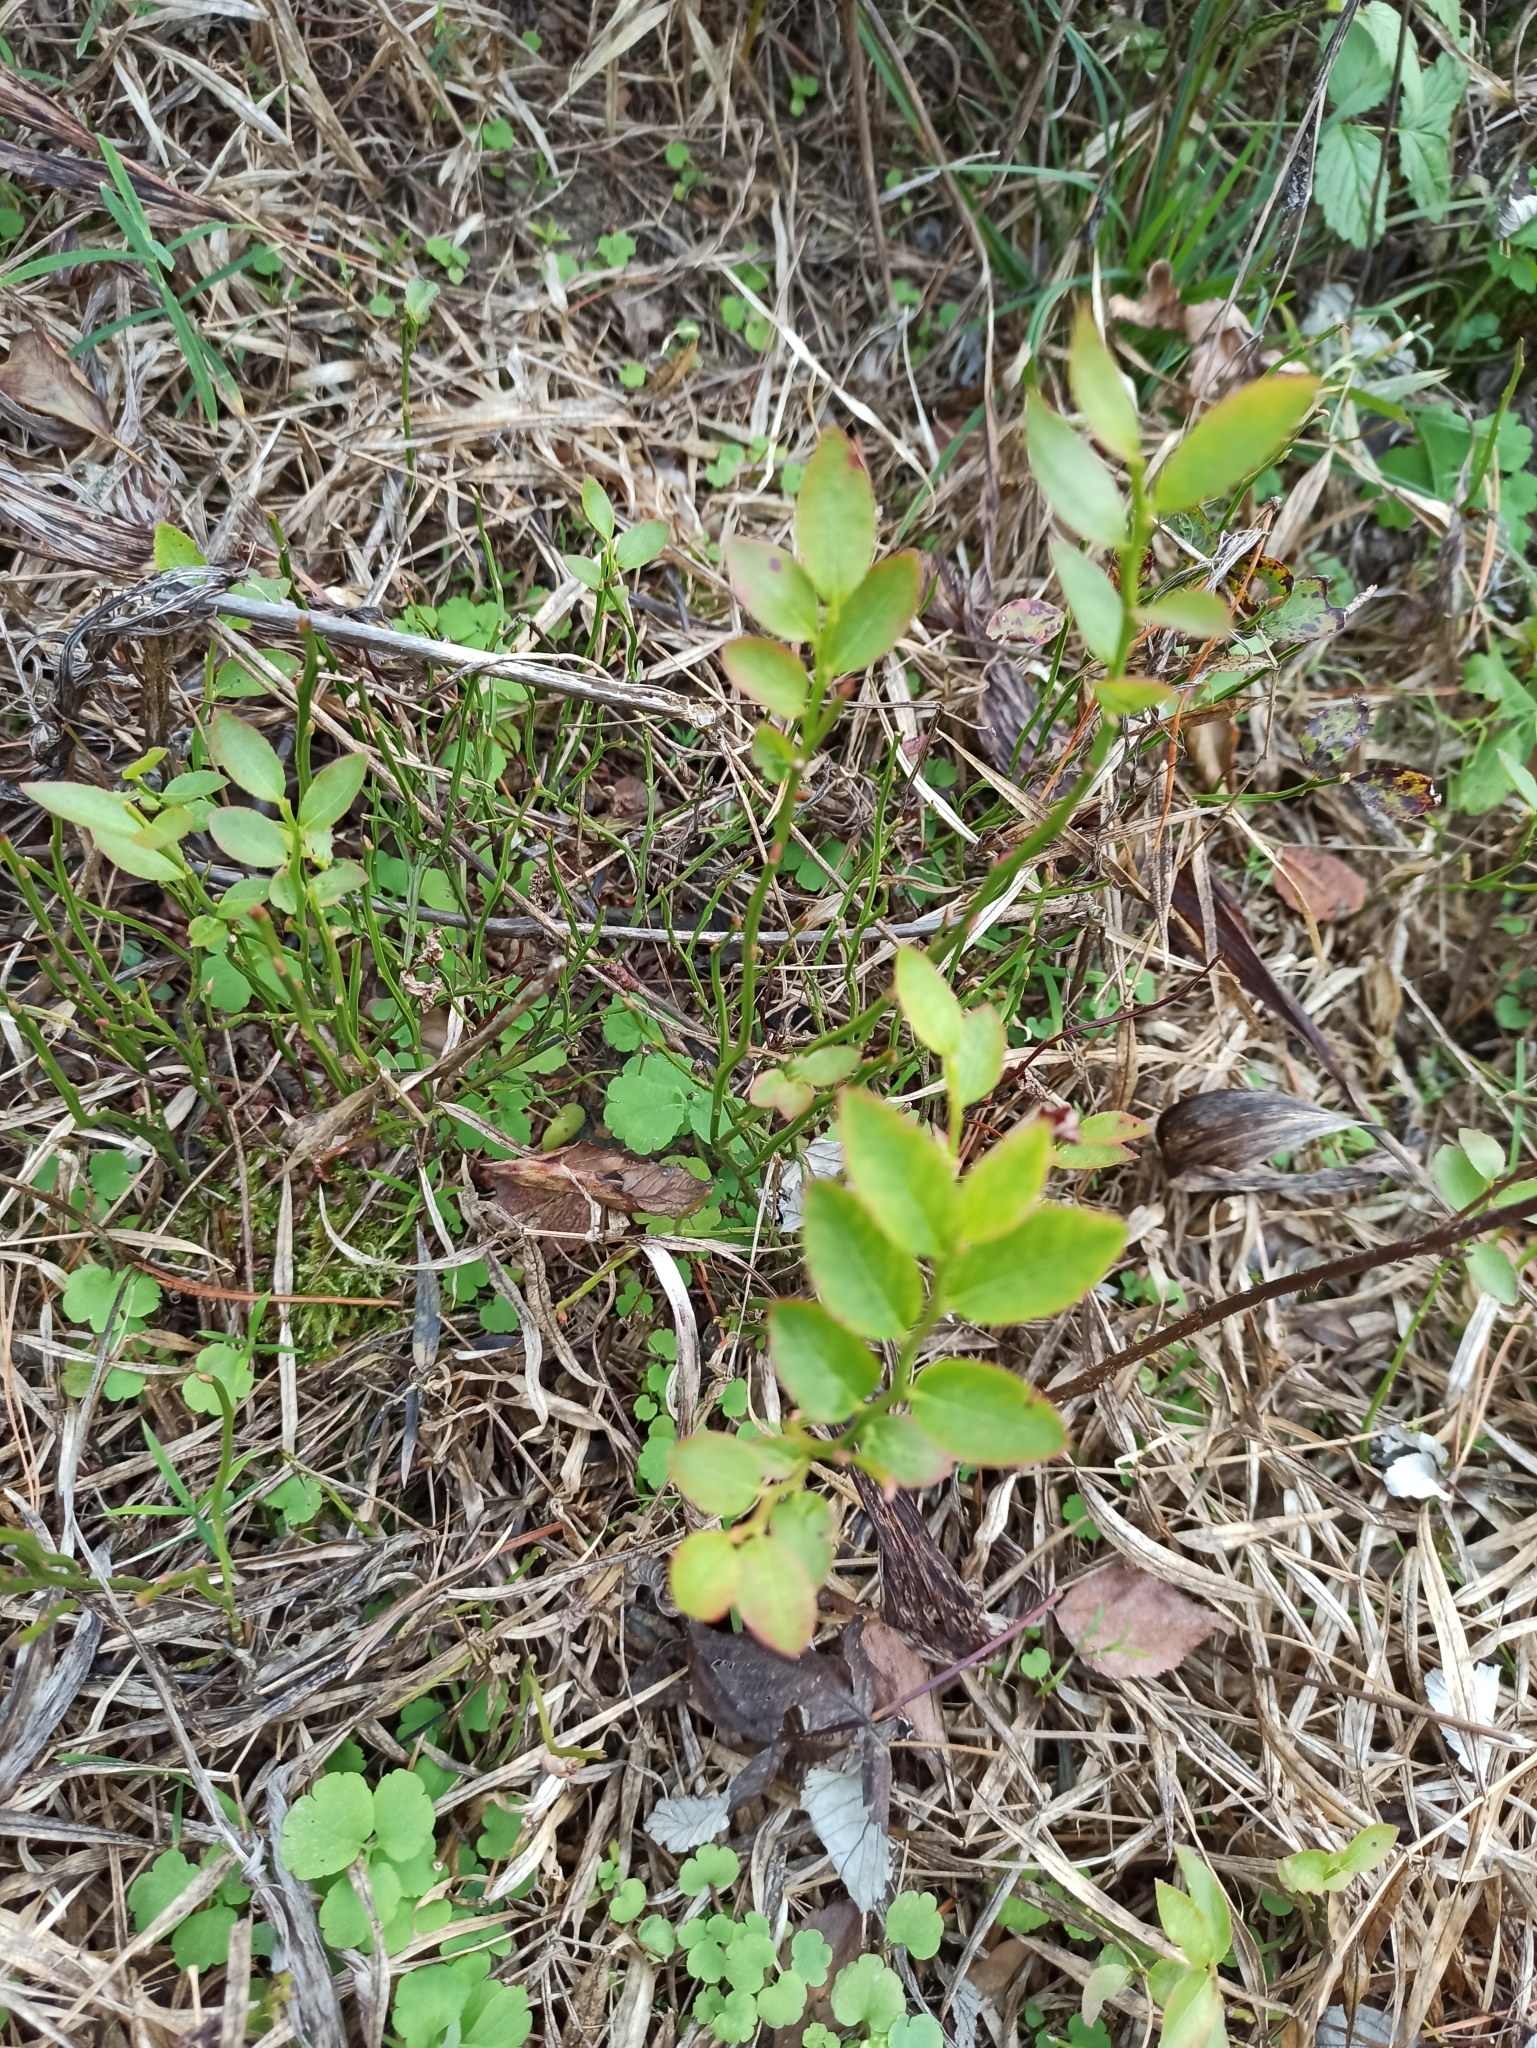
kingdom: Plantae
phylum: Tracheophyta
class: Magnoliopsida
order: Ericales
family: Ericaceae
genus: Vaccinium
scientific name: Vaccinium myrtillus
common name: Bilberry
